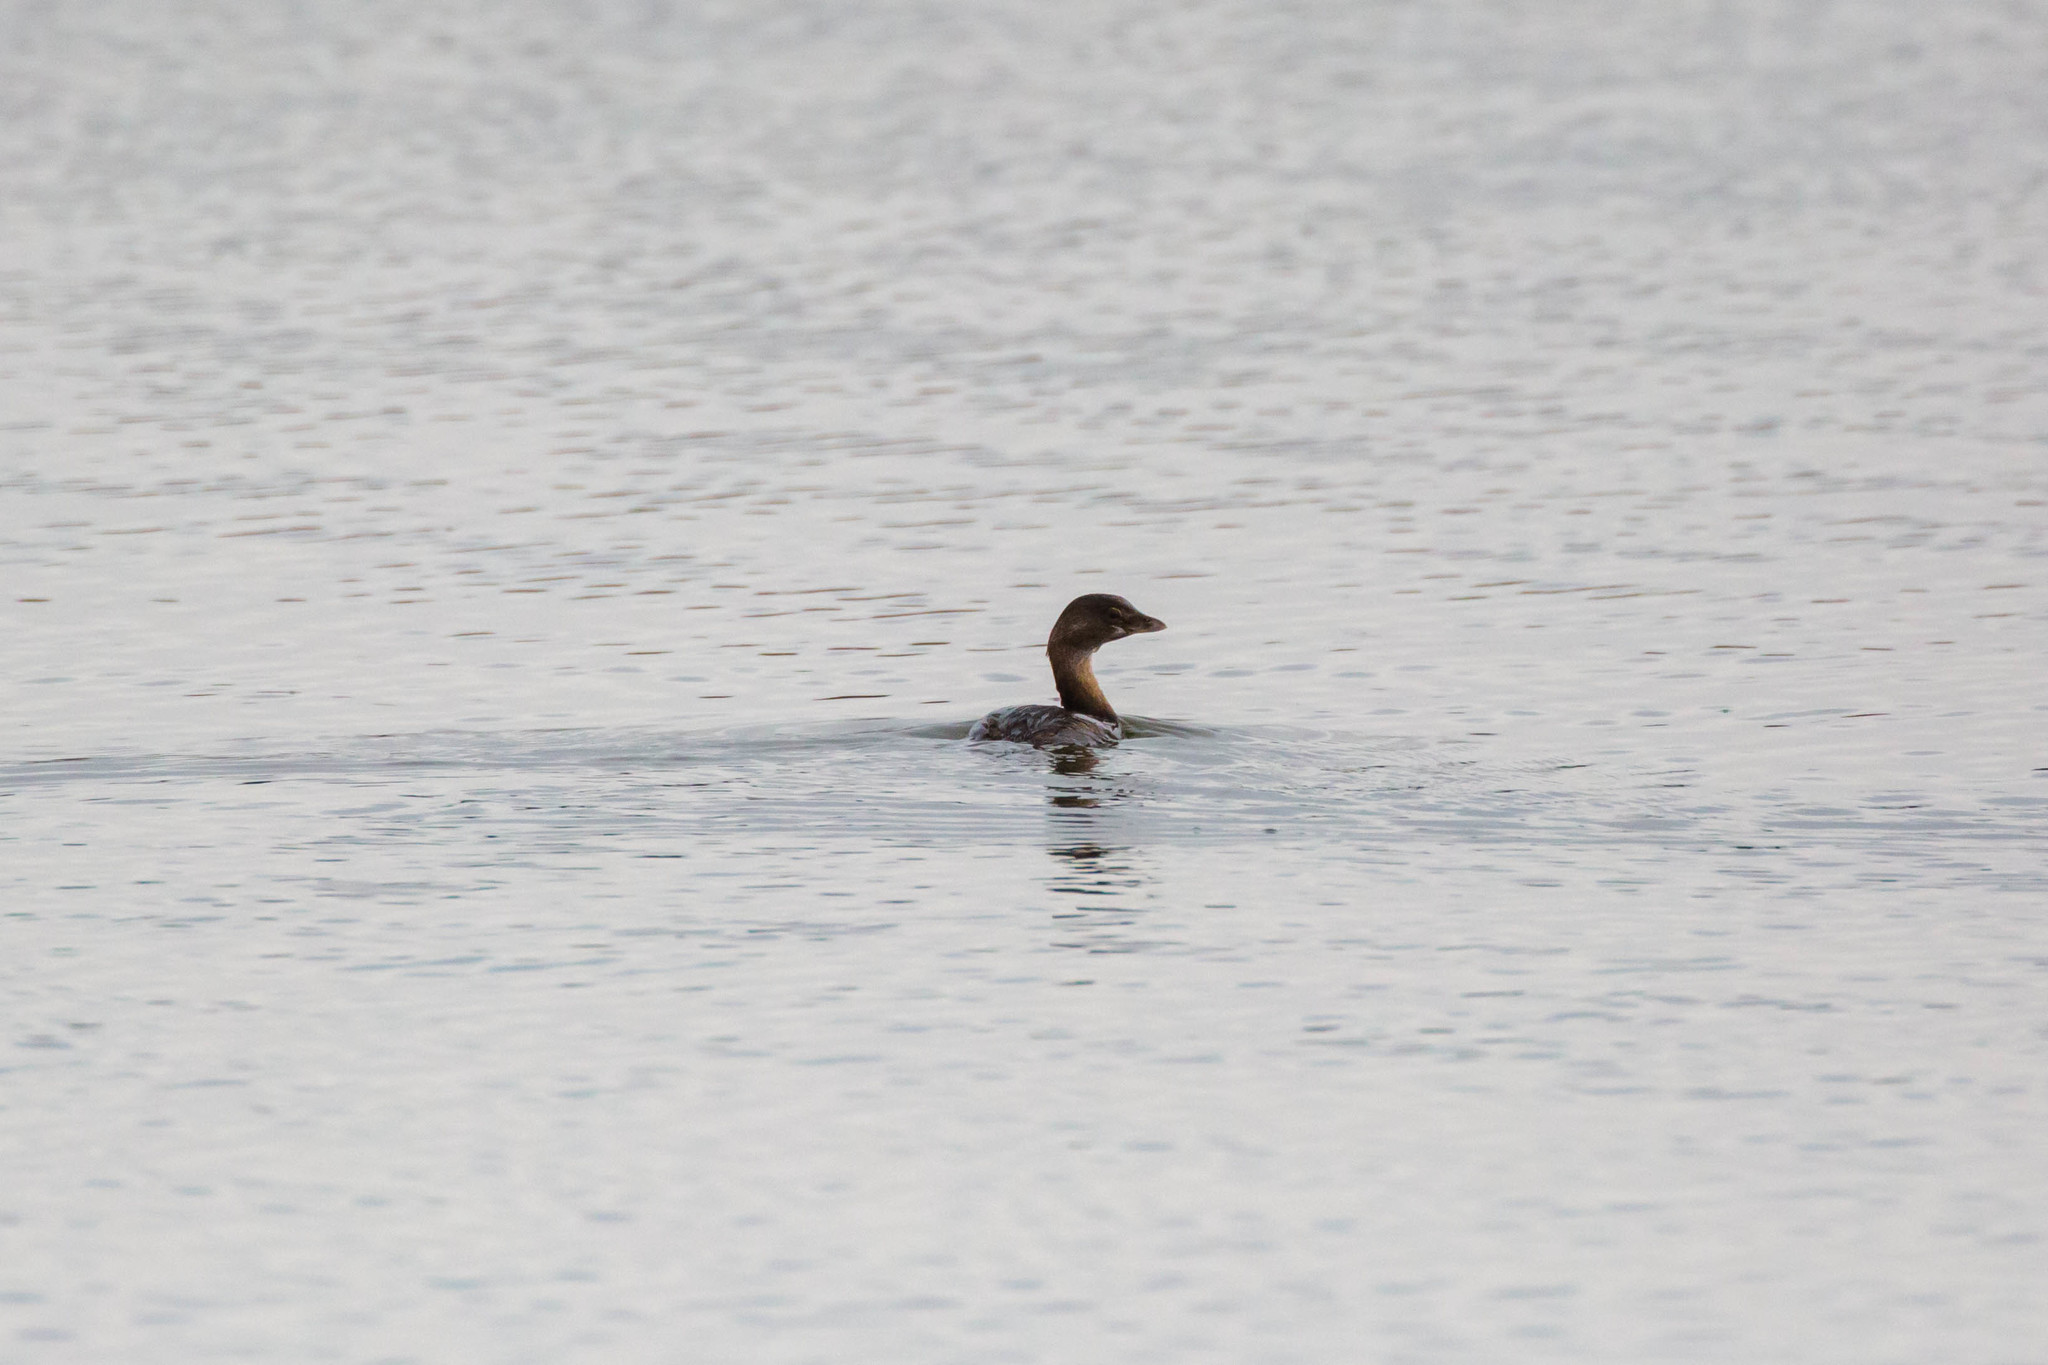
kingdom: Animalia
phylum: Chordata
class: Aves
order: Podicipediformes
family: Podicipedidae
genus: Podilymbus
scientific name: Podilymbus podiceps
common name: Pied-billed grebe
